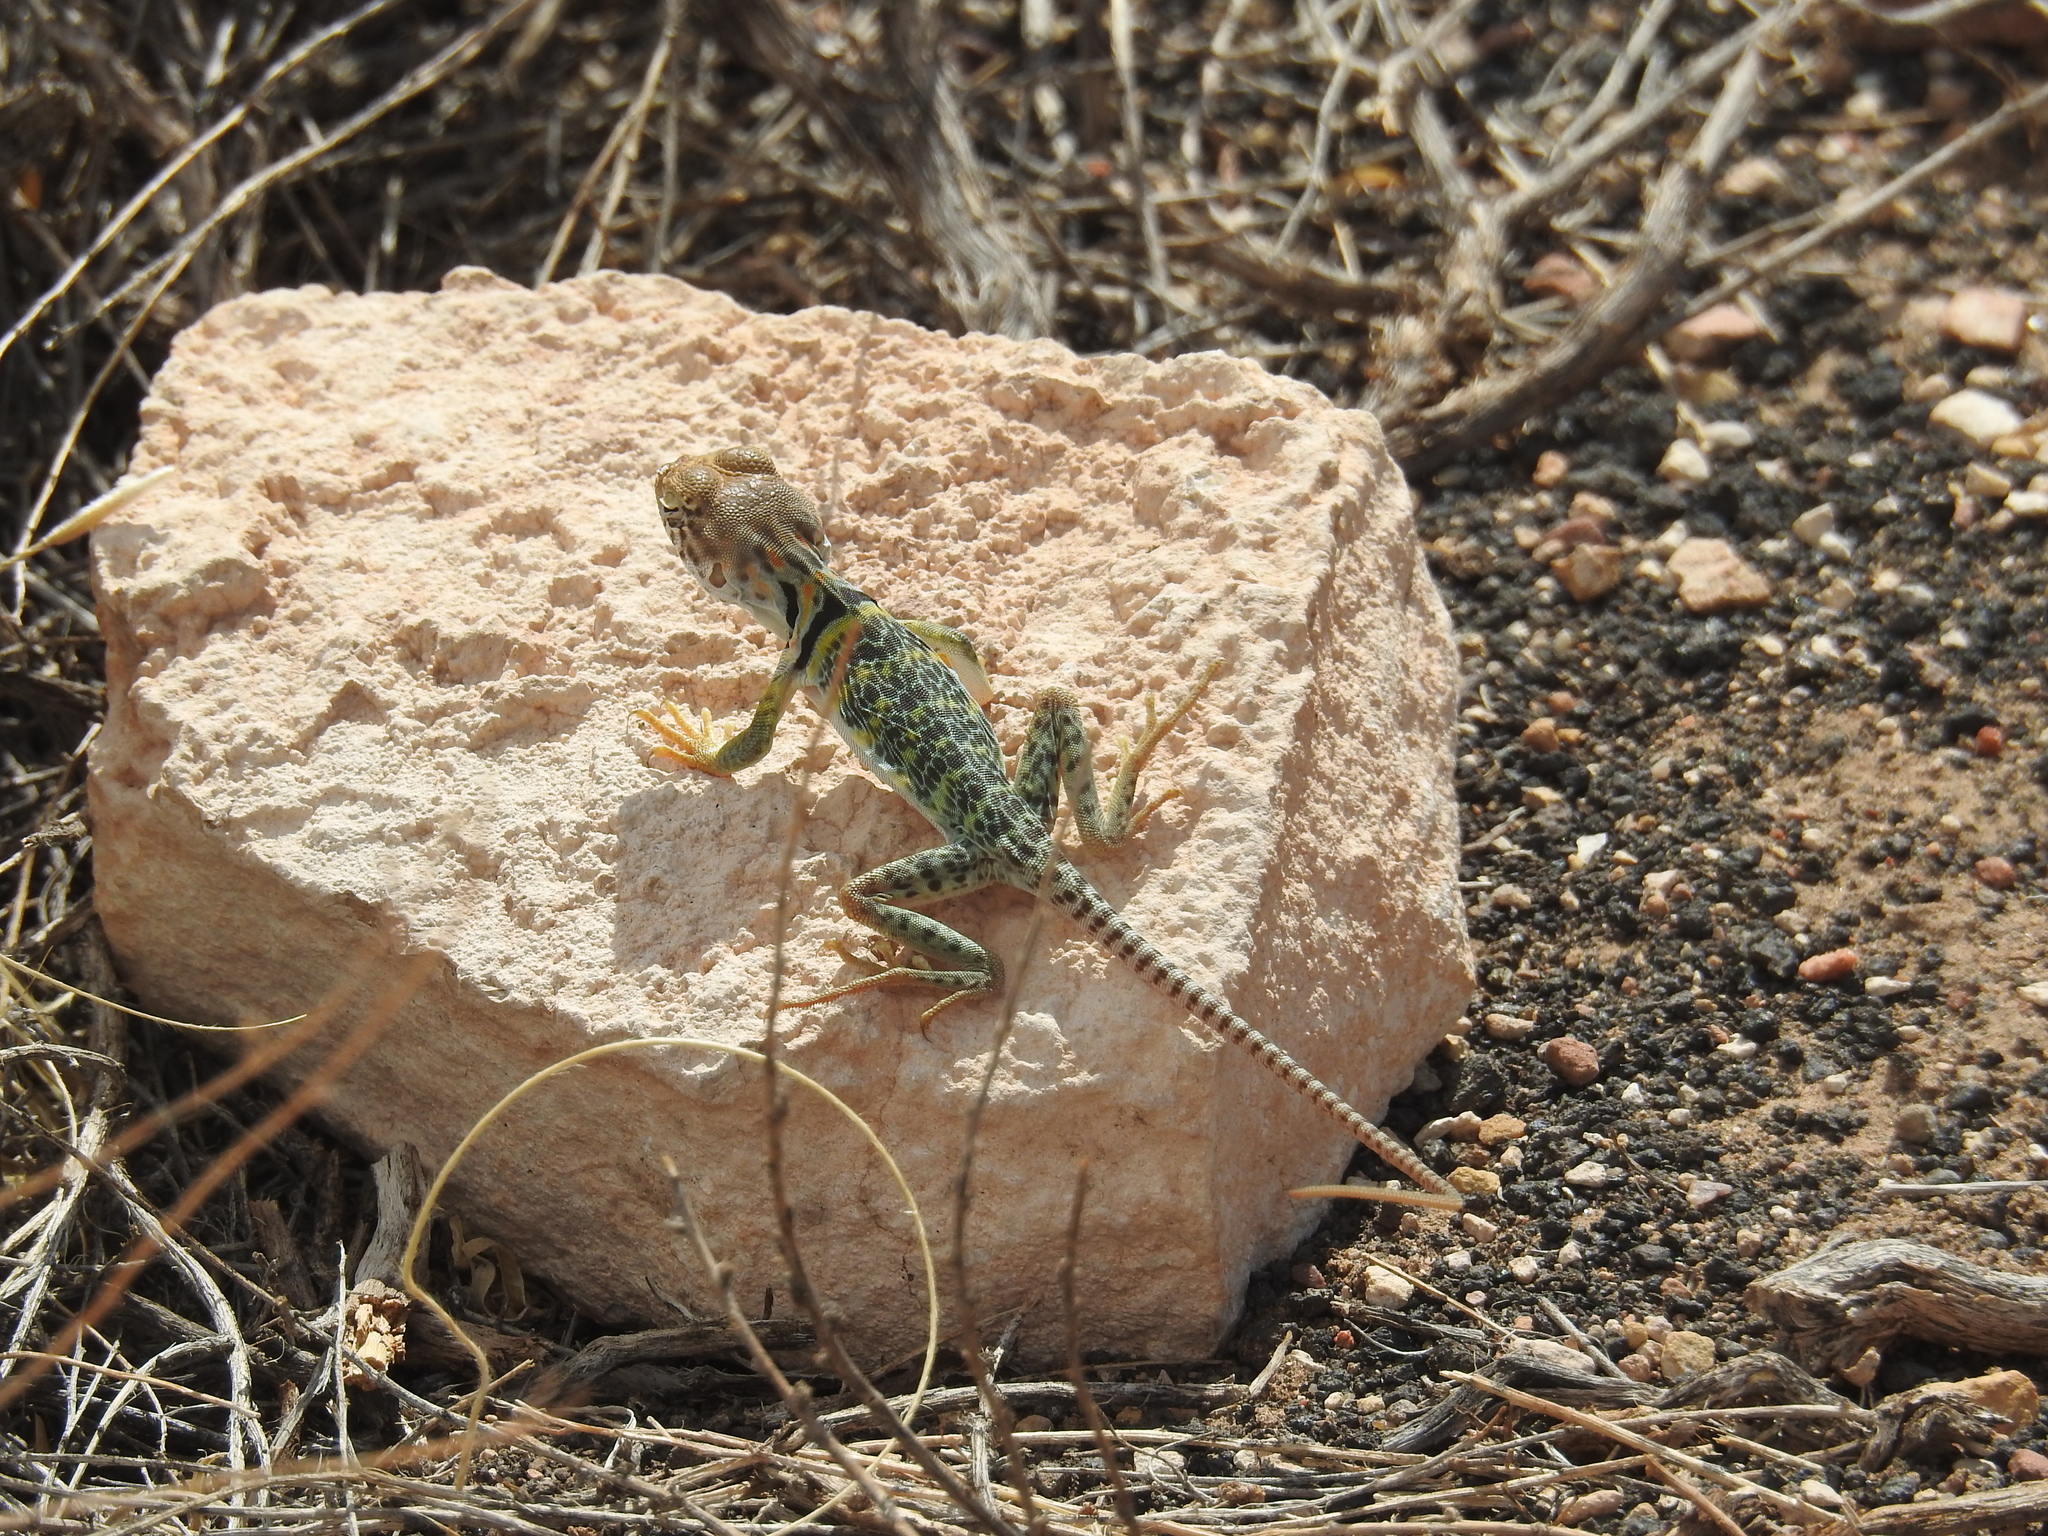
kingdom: Animalia
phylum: Chordata
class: Squamata
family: Crotaphytidae
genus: Crotaphytus
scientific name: Crotaphytus collaris
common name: Collared lizard
